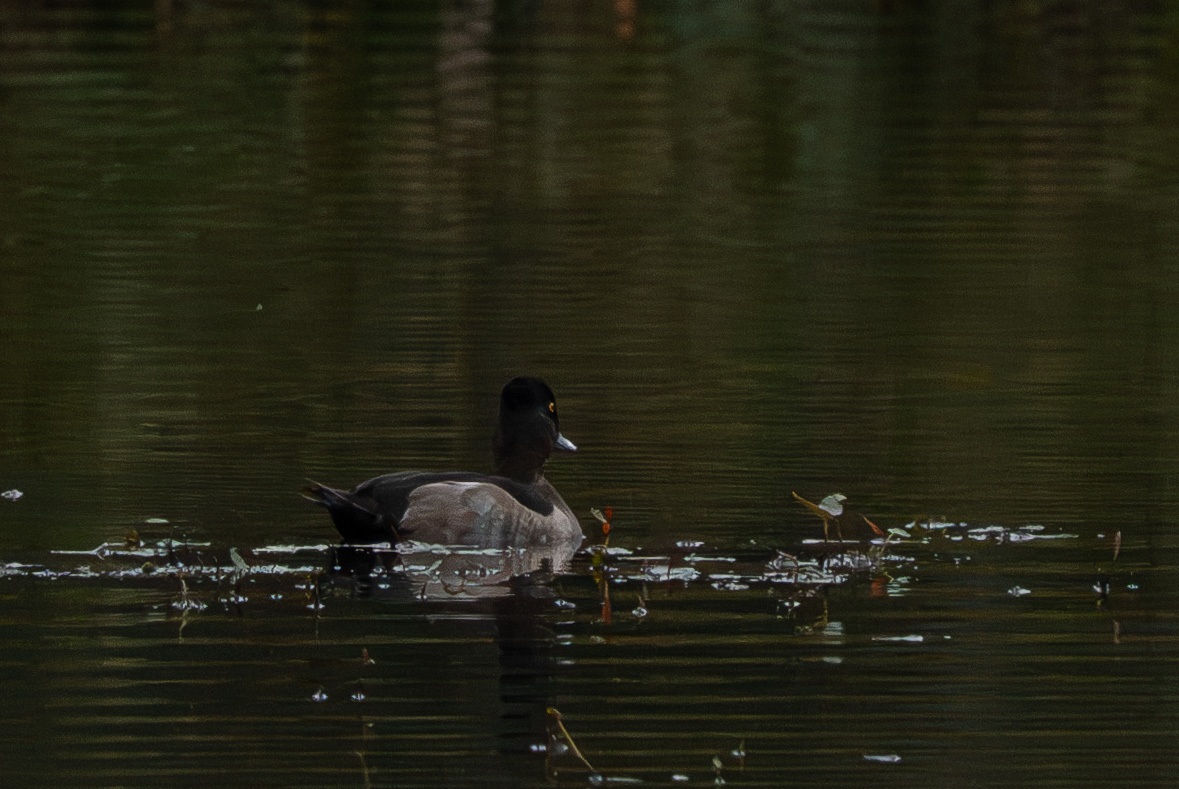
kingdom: Animalia
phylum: Chordata
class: Aves
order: Anseriformes
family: Anatidae
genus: Aythya
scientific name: Aythya collaris
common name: Ring-necked duck
